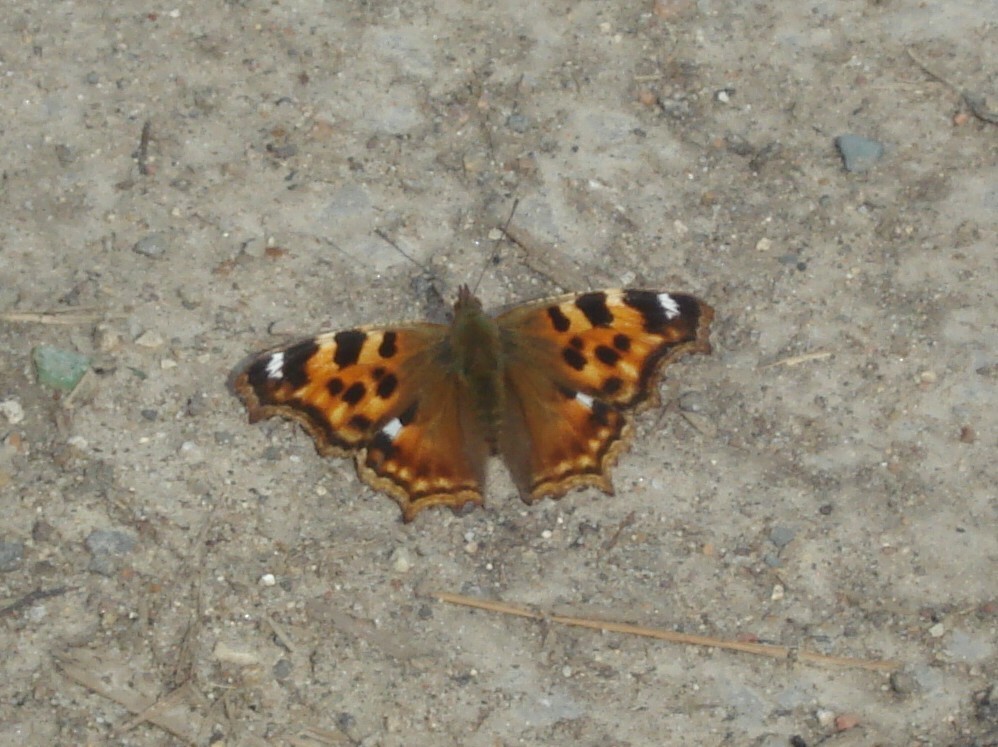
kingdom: Animalia
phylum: Arthropoda
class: Insecta
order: Lepidoptera
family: Nymphalidae
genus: Polygonia
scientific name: Polygonia vaualbum
